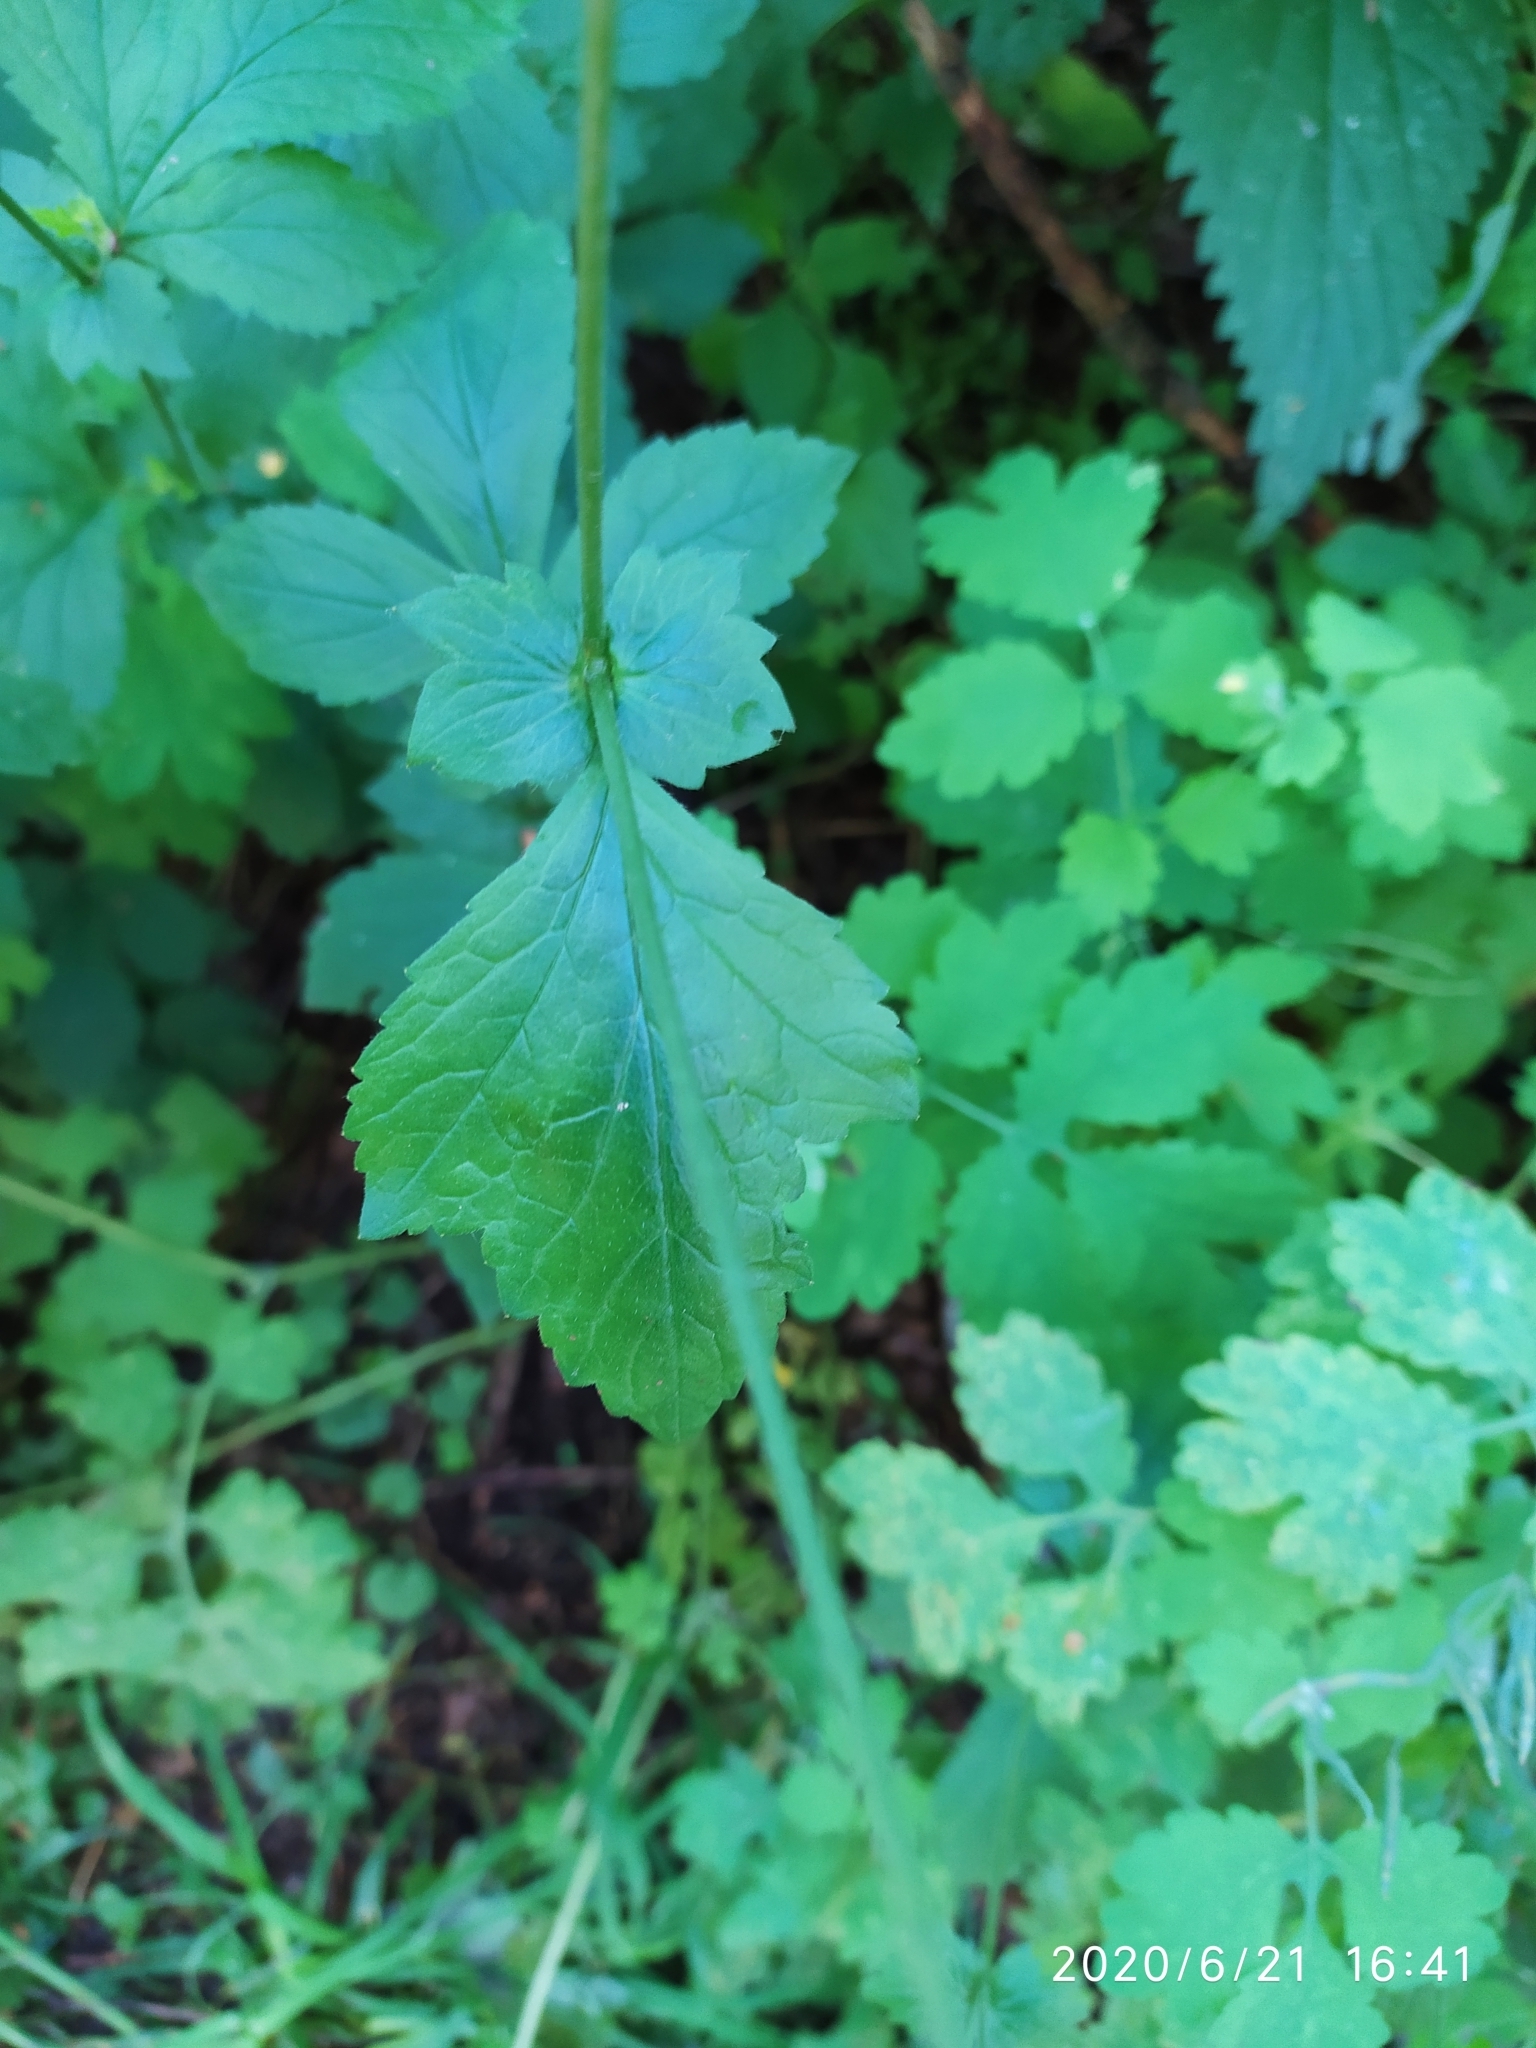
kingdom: Plantae
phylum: Tracheophyta
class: Magnoliopsida
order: Rosales
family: Rosaceae
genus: Geum
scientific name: Geum urbanum
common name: Wood avens
